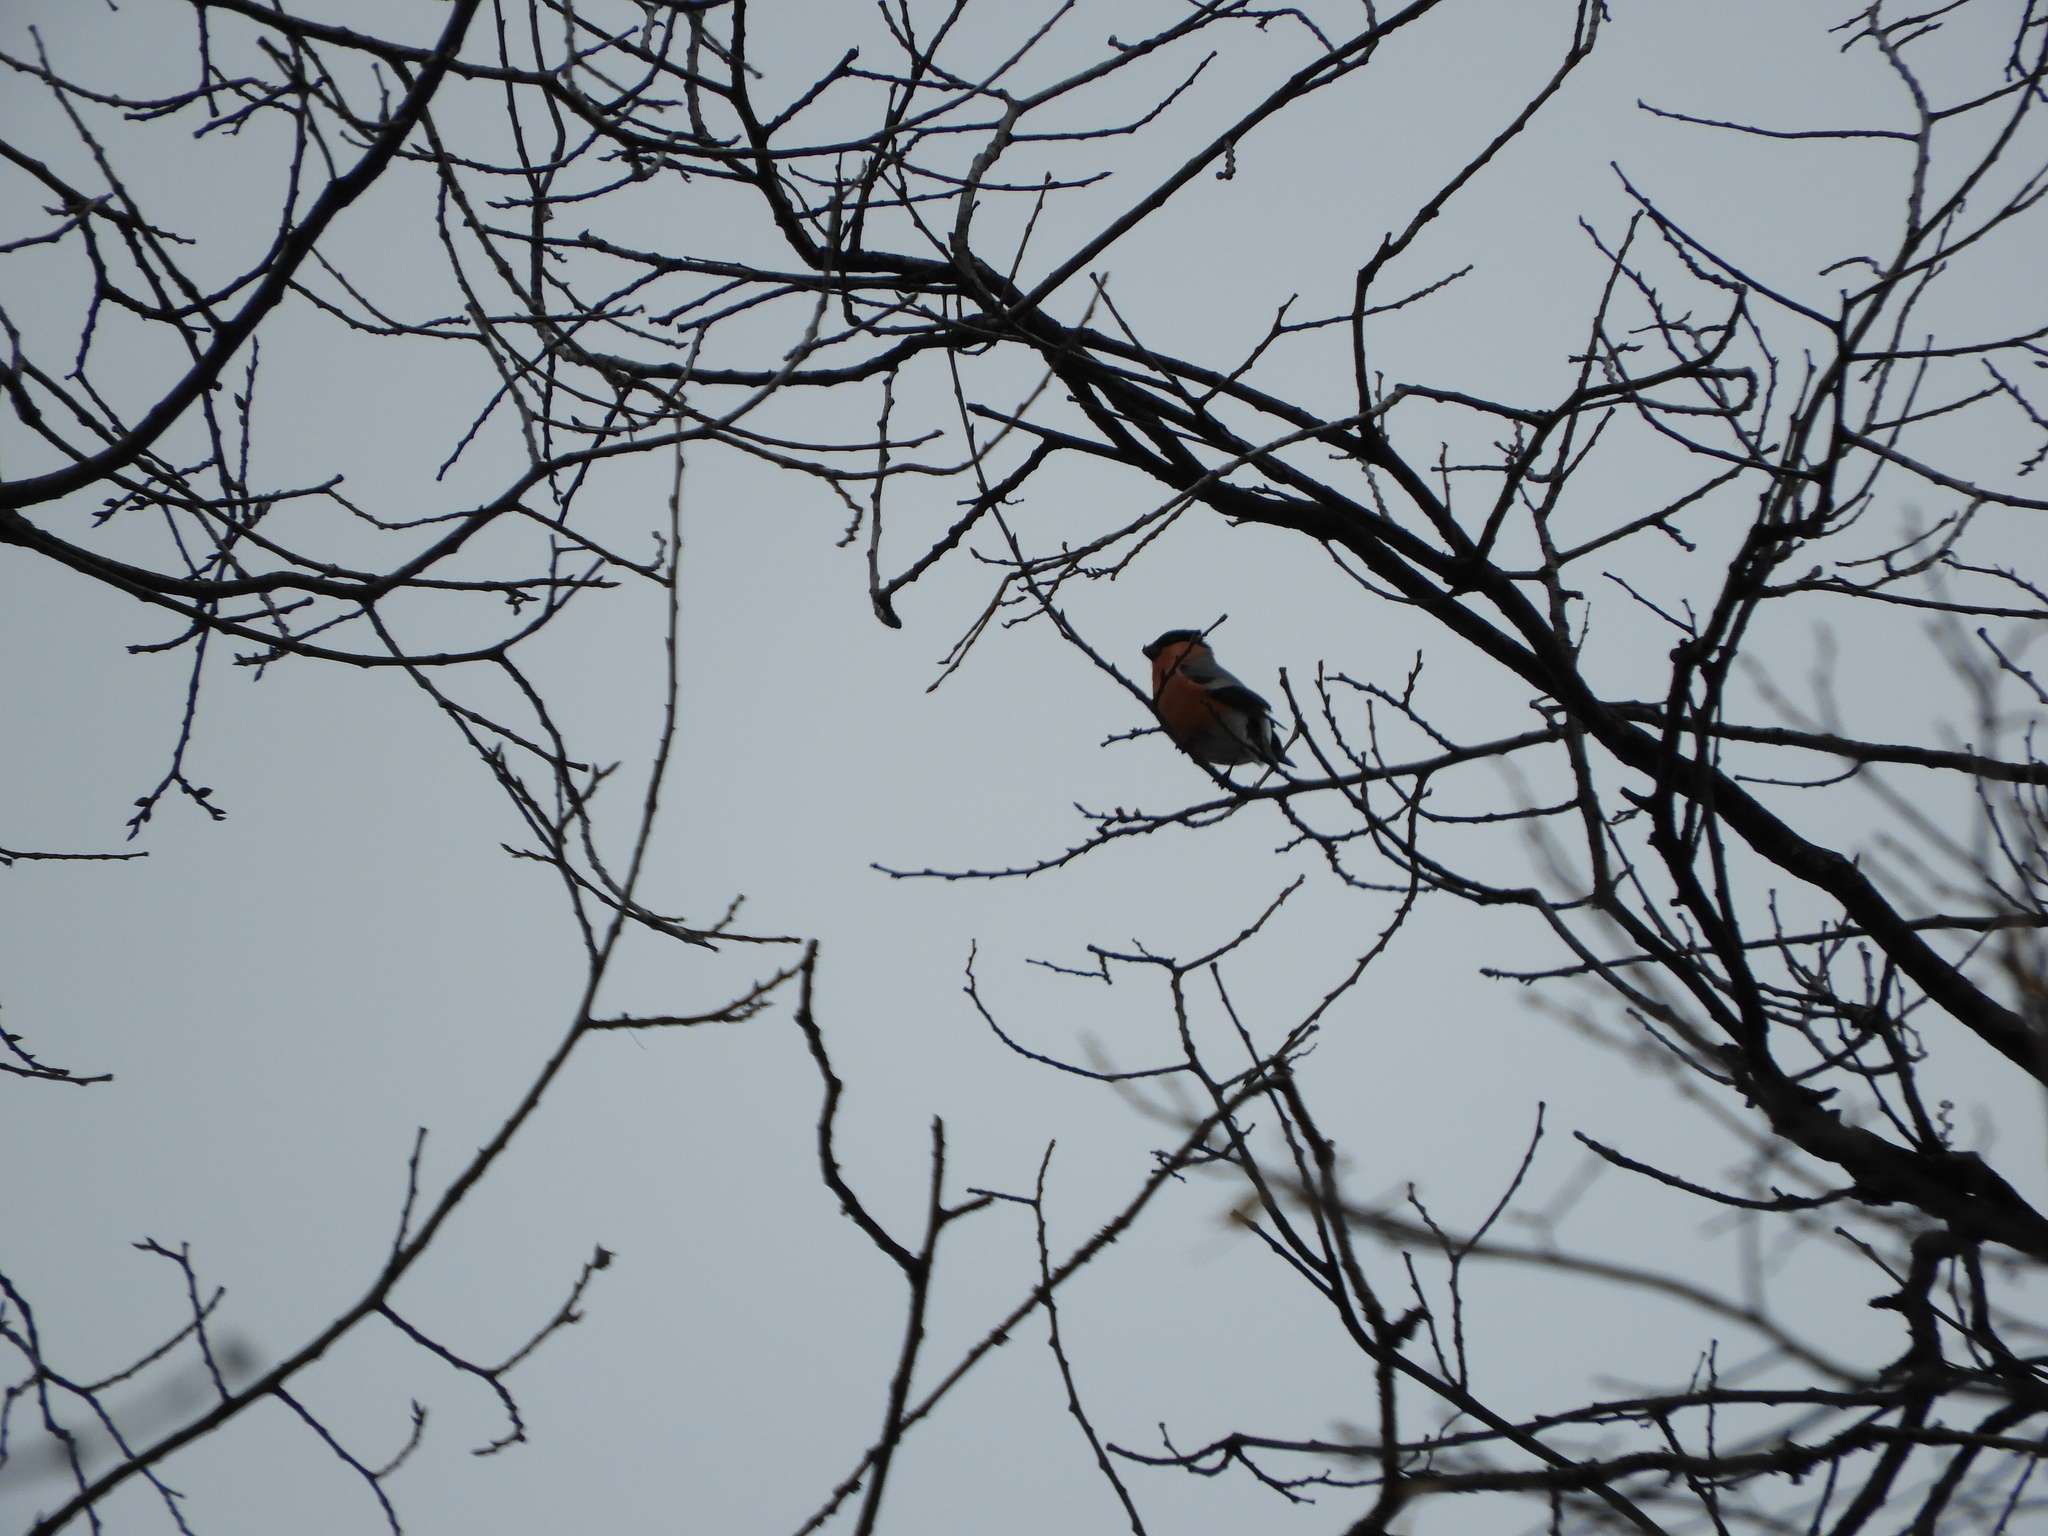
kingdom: Animalia
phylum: Chordata
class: Aves
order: Passeriformes
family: Fringillidae
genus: Pyrrhula
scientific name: Pyrrhula pyrrhula
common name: Eurasian bullfinch
